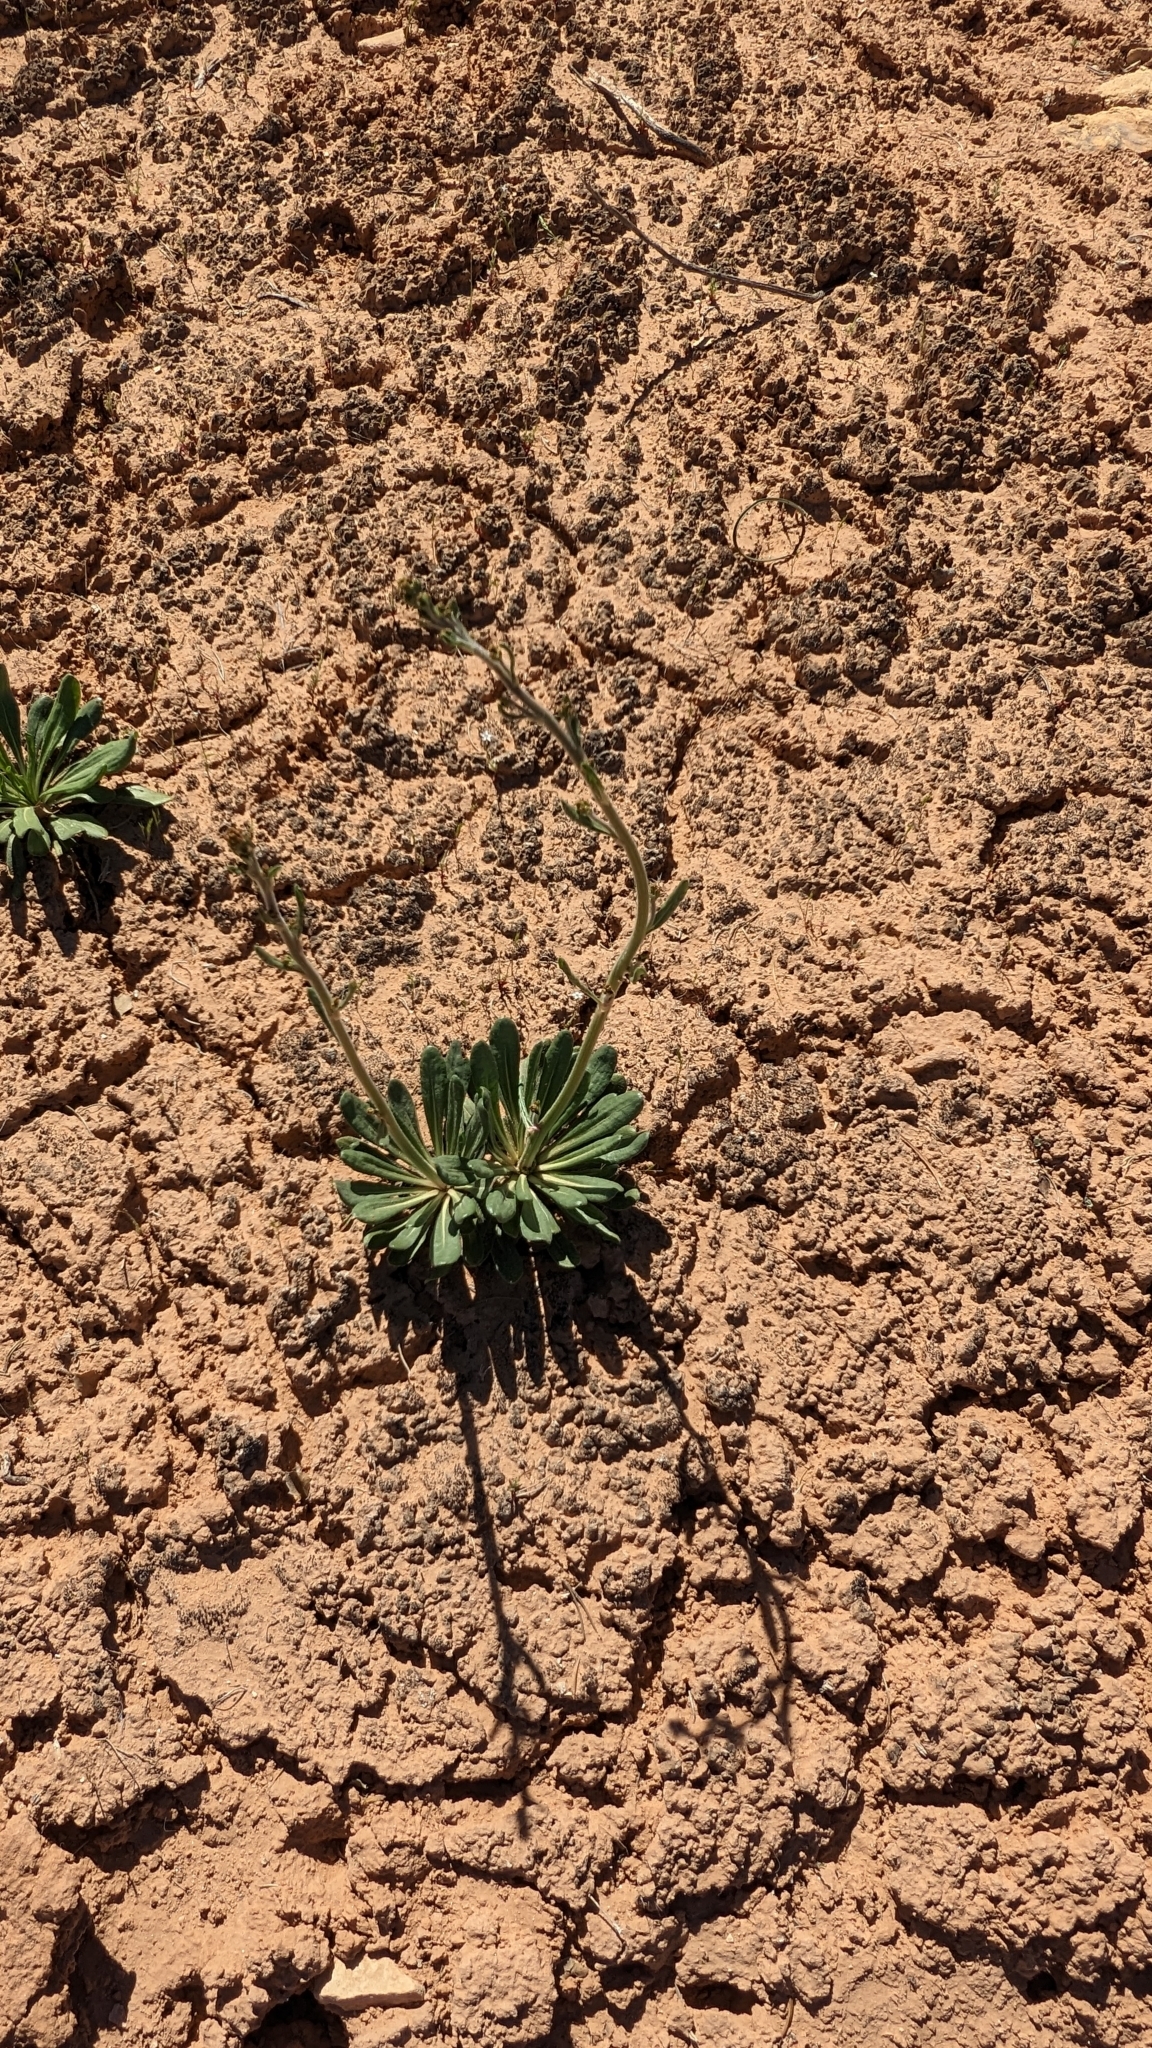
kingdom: Plantae
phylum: Tracheophyta
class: Magnoliopsida
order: Caryophyllales
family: Polygonaceae
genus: Eriogonum
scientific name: Eriogonum alatum
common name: Winged eriogonum
